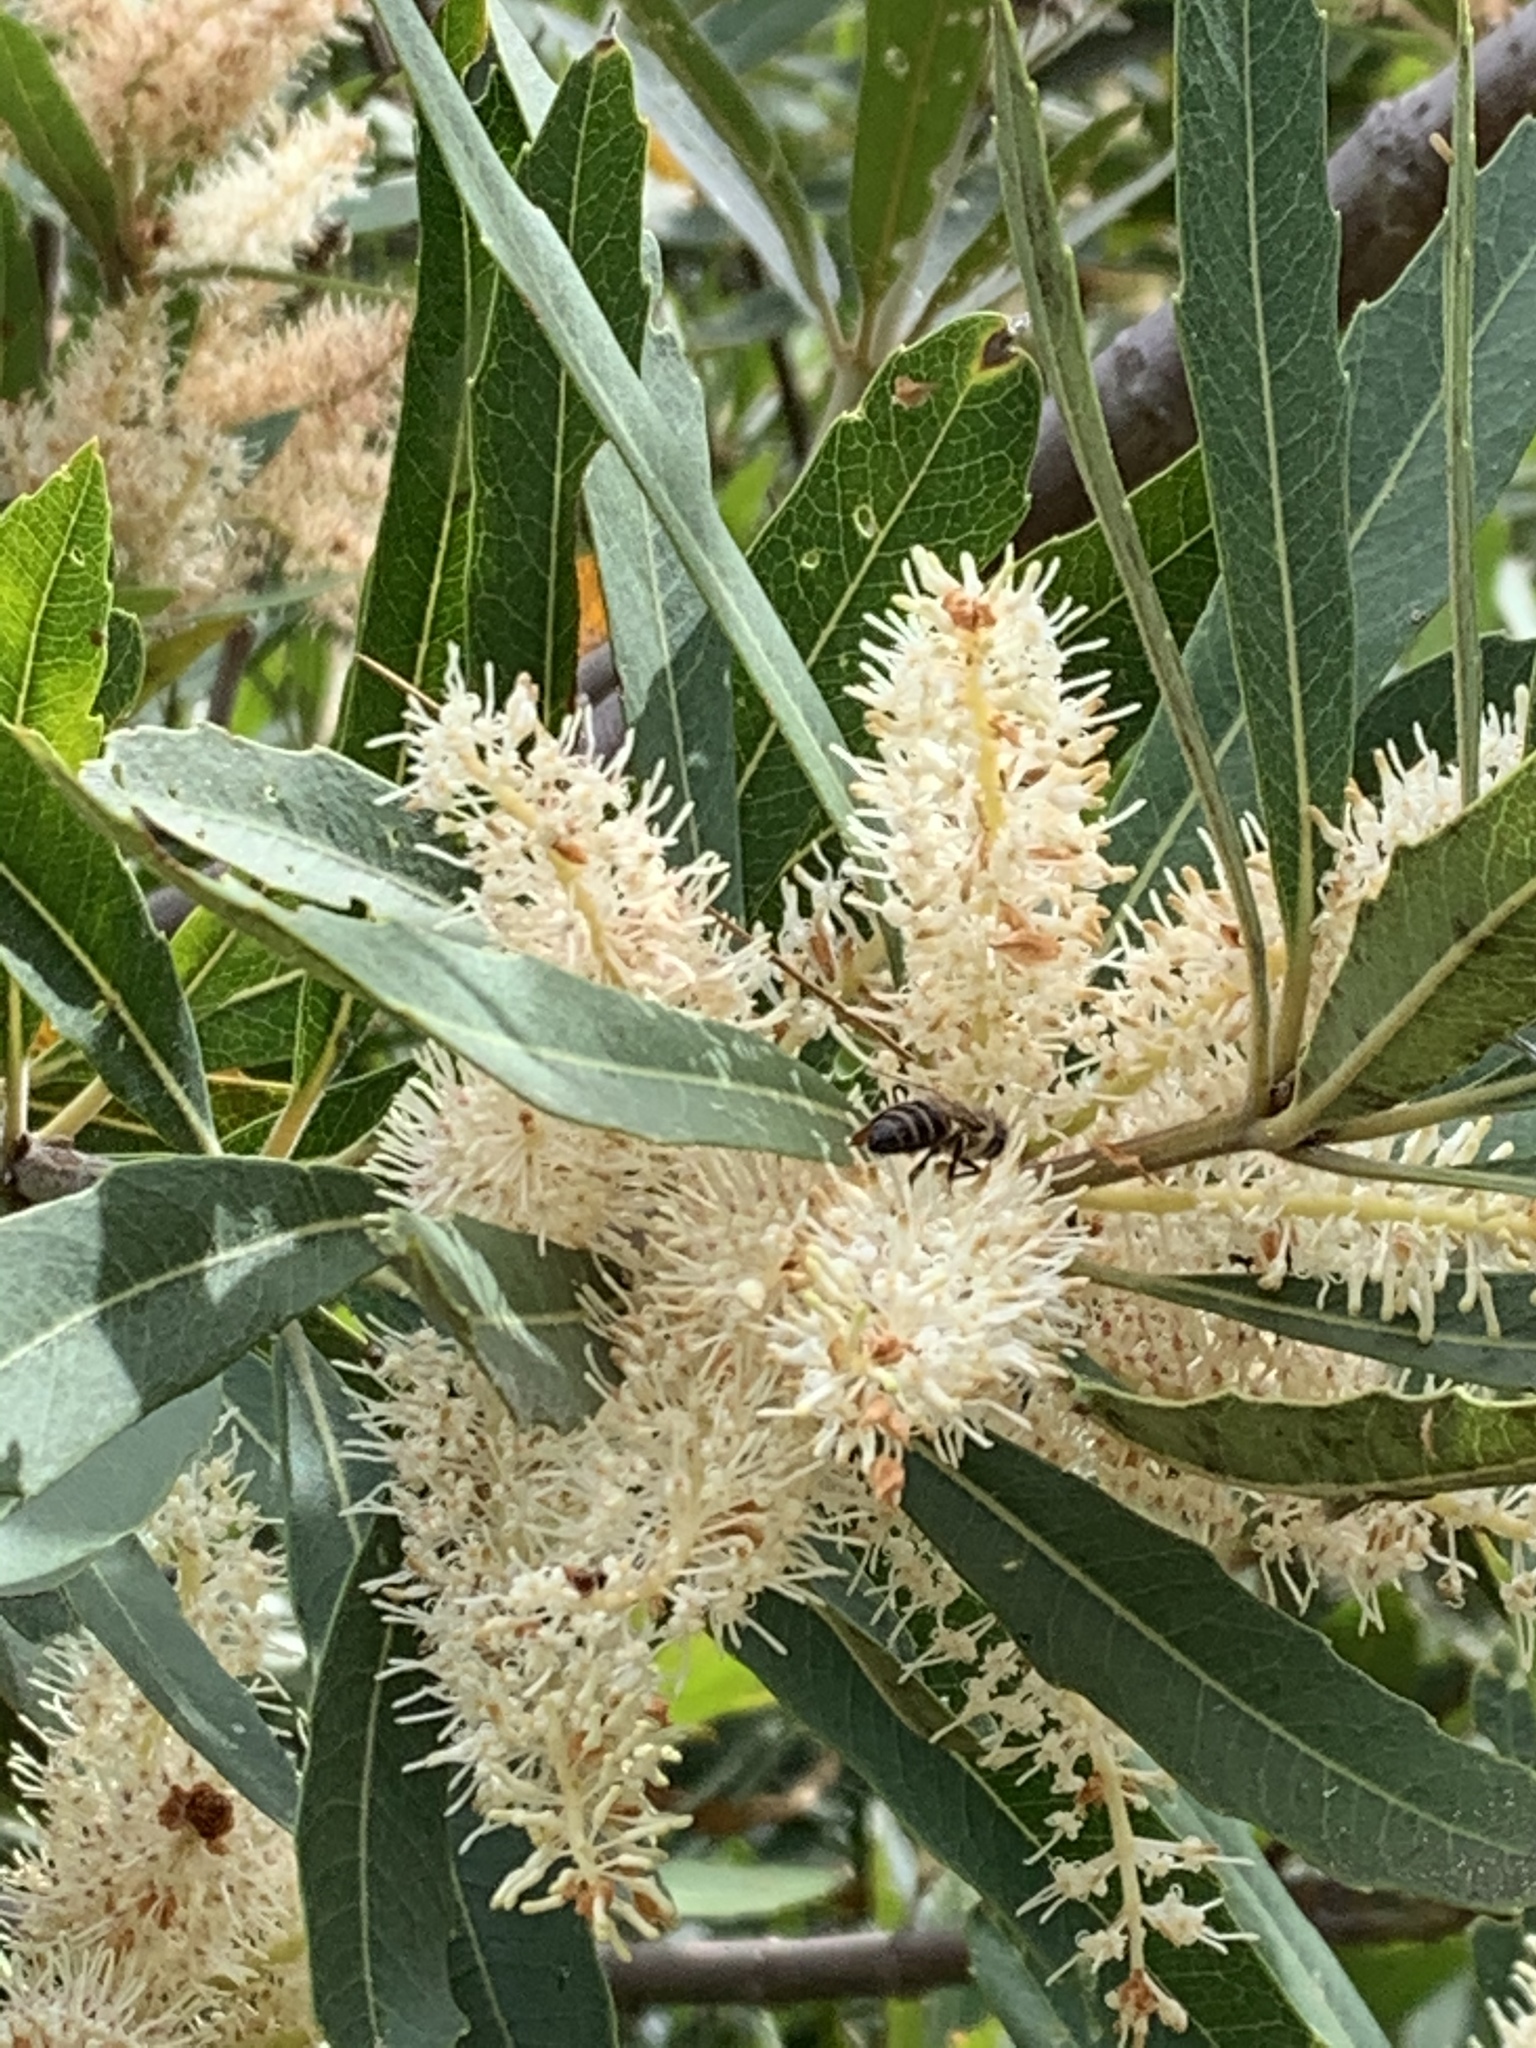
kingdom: Plantae
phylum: Tracheophyta
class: Magnoliopsida
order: Proteales
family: Proteaceae
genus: Brabejum
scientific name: Brabejum stellatifolium
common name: Wild almond
